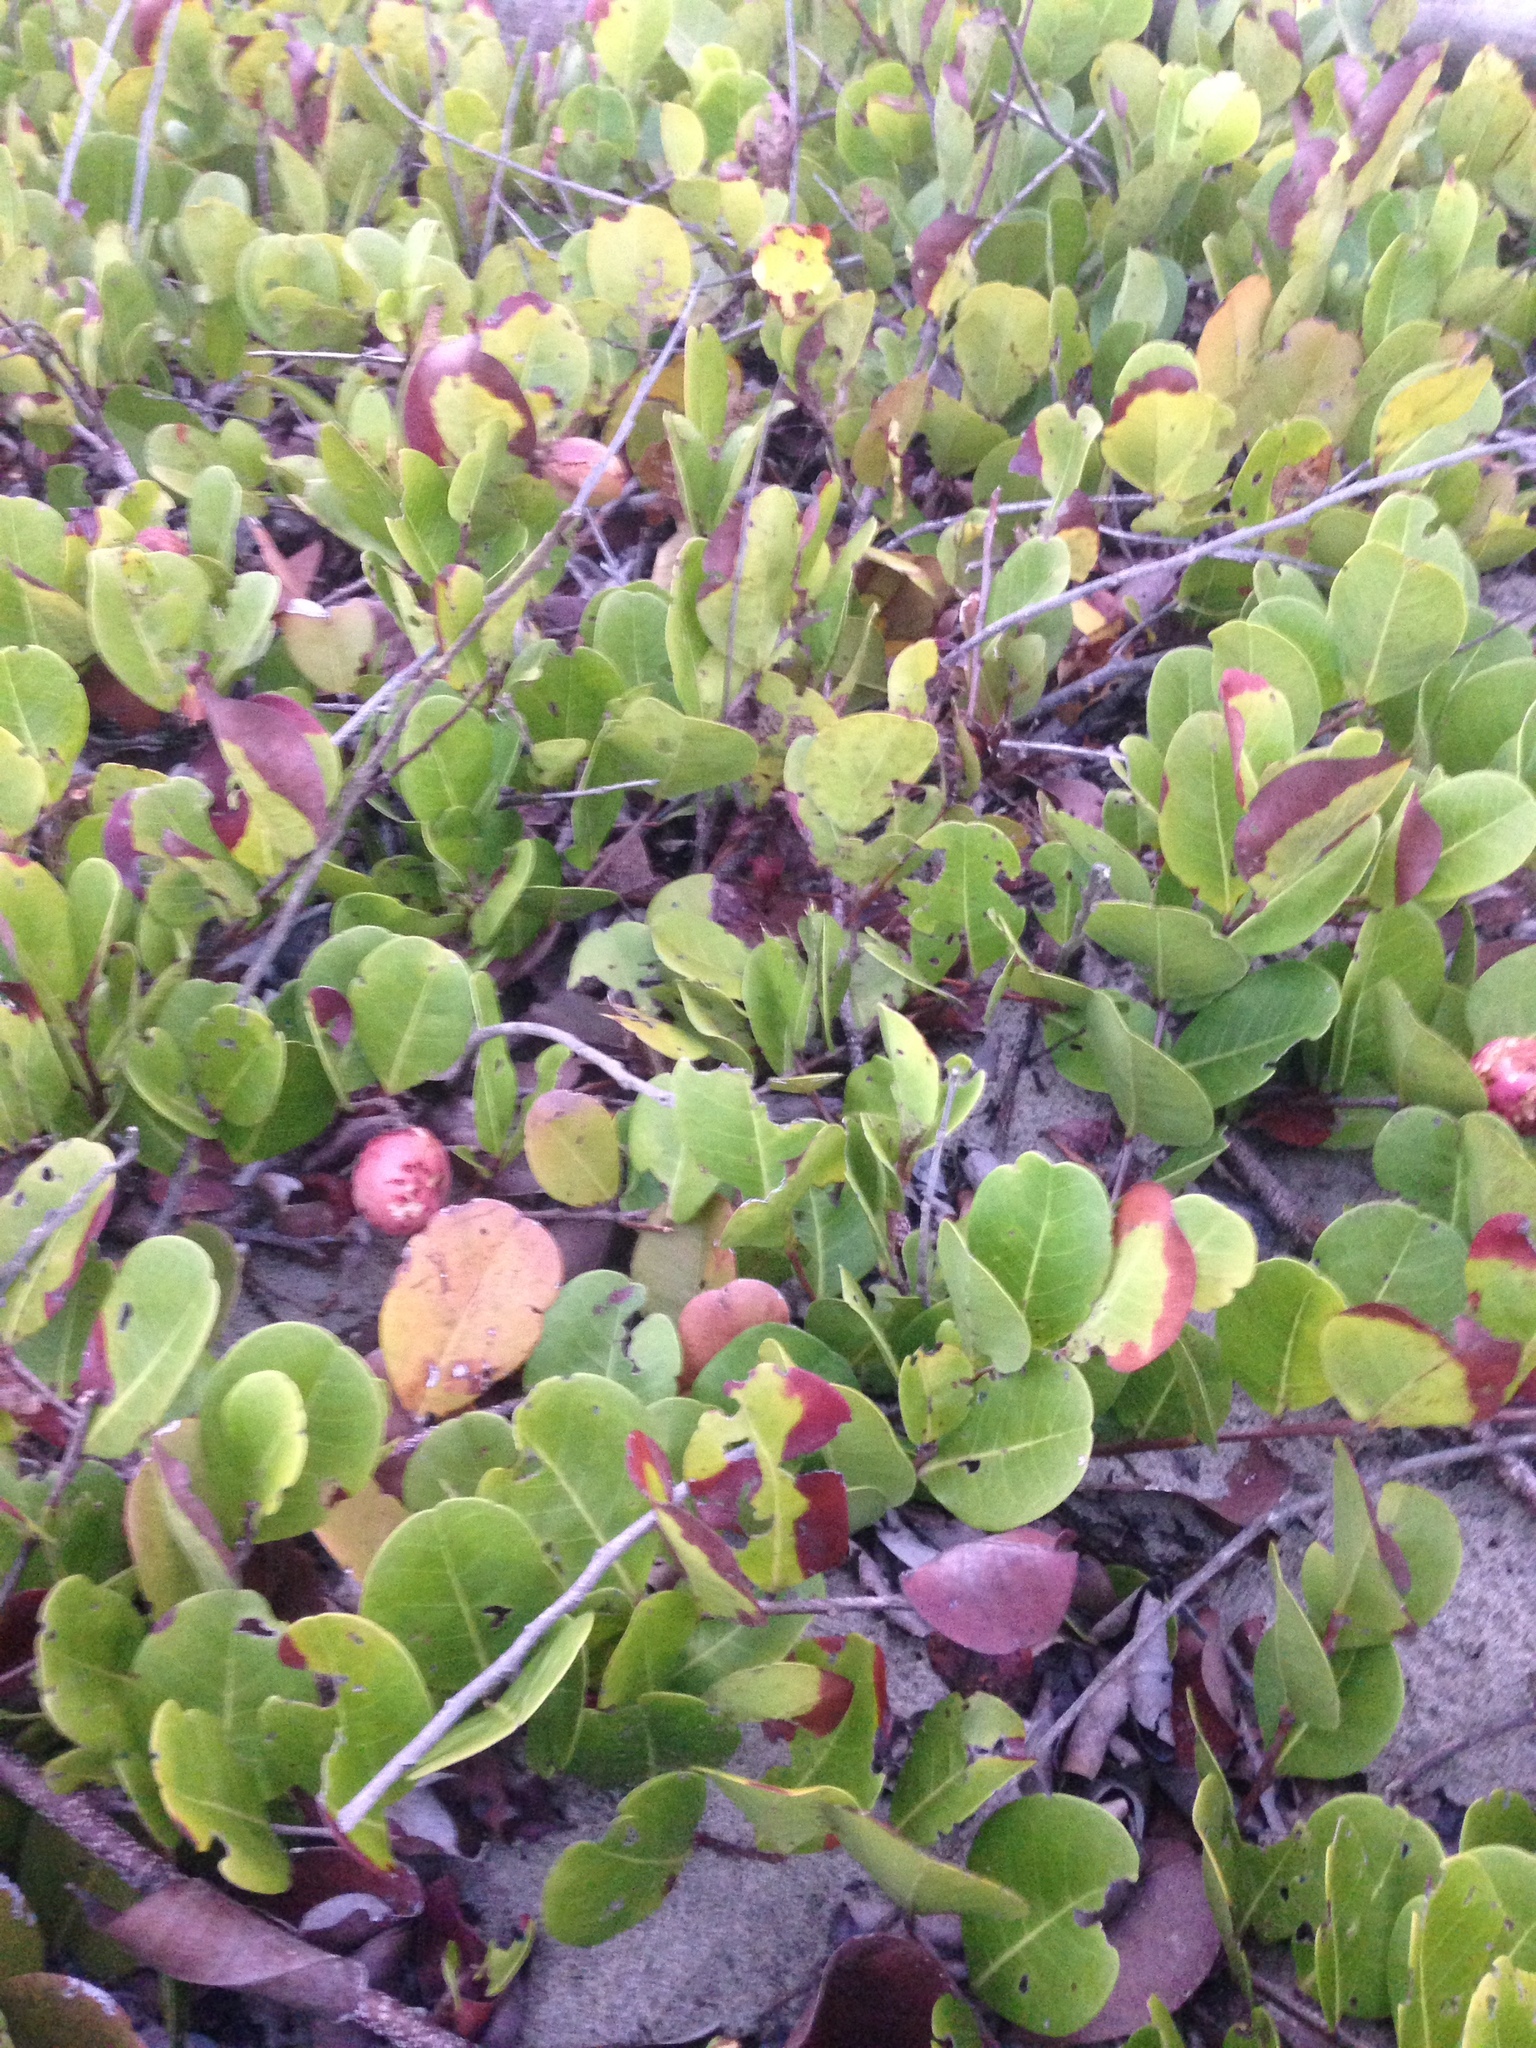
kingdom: Plantae
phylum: Tracheophyta
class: Magnoliopsida
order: Malpighiales
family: Chrysobalanaceae
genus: Chrysobalanus
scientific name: Chrysobalanus icaco
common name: Coco plum
